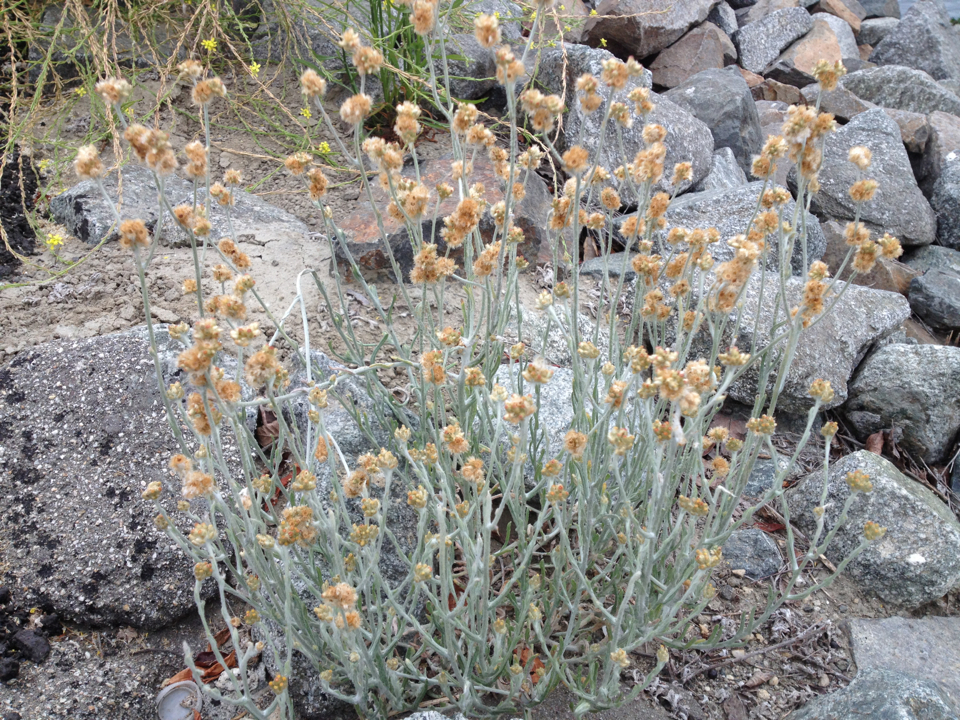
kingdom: Plantae
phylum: Tracheophyta
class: Magnoliopsida
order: Asterales
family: Asteraceae
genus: Helichrysum
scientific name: Helichrysum luteoalbum
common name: Daisy
